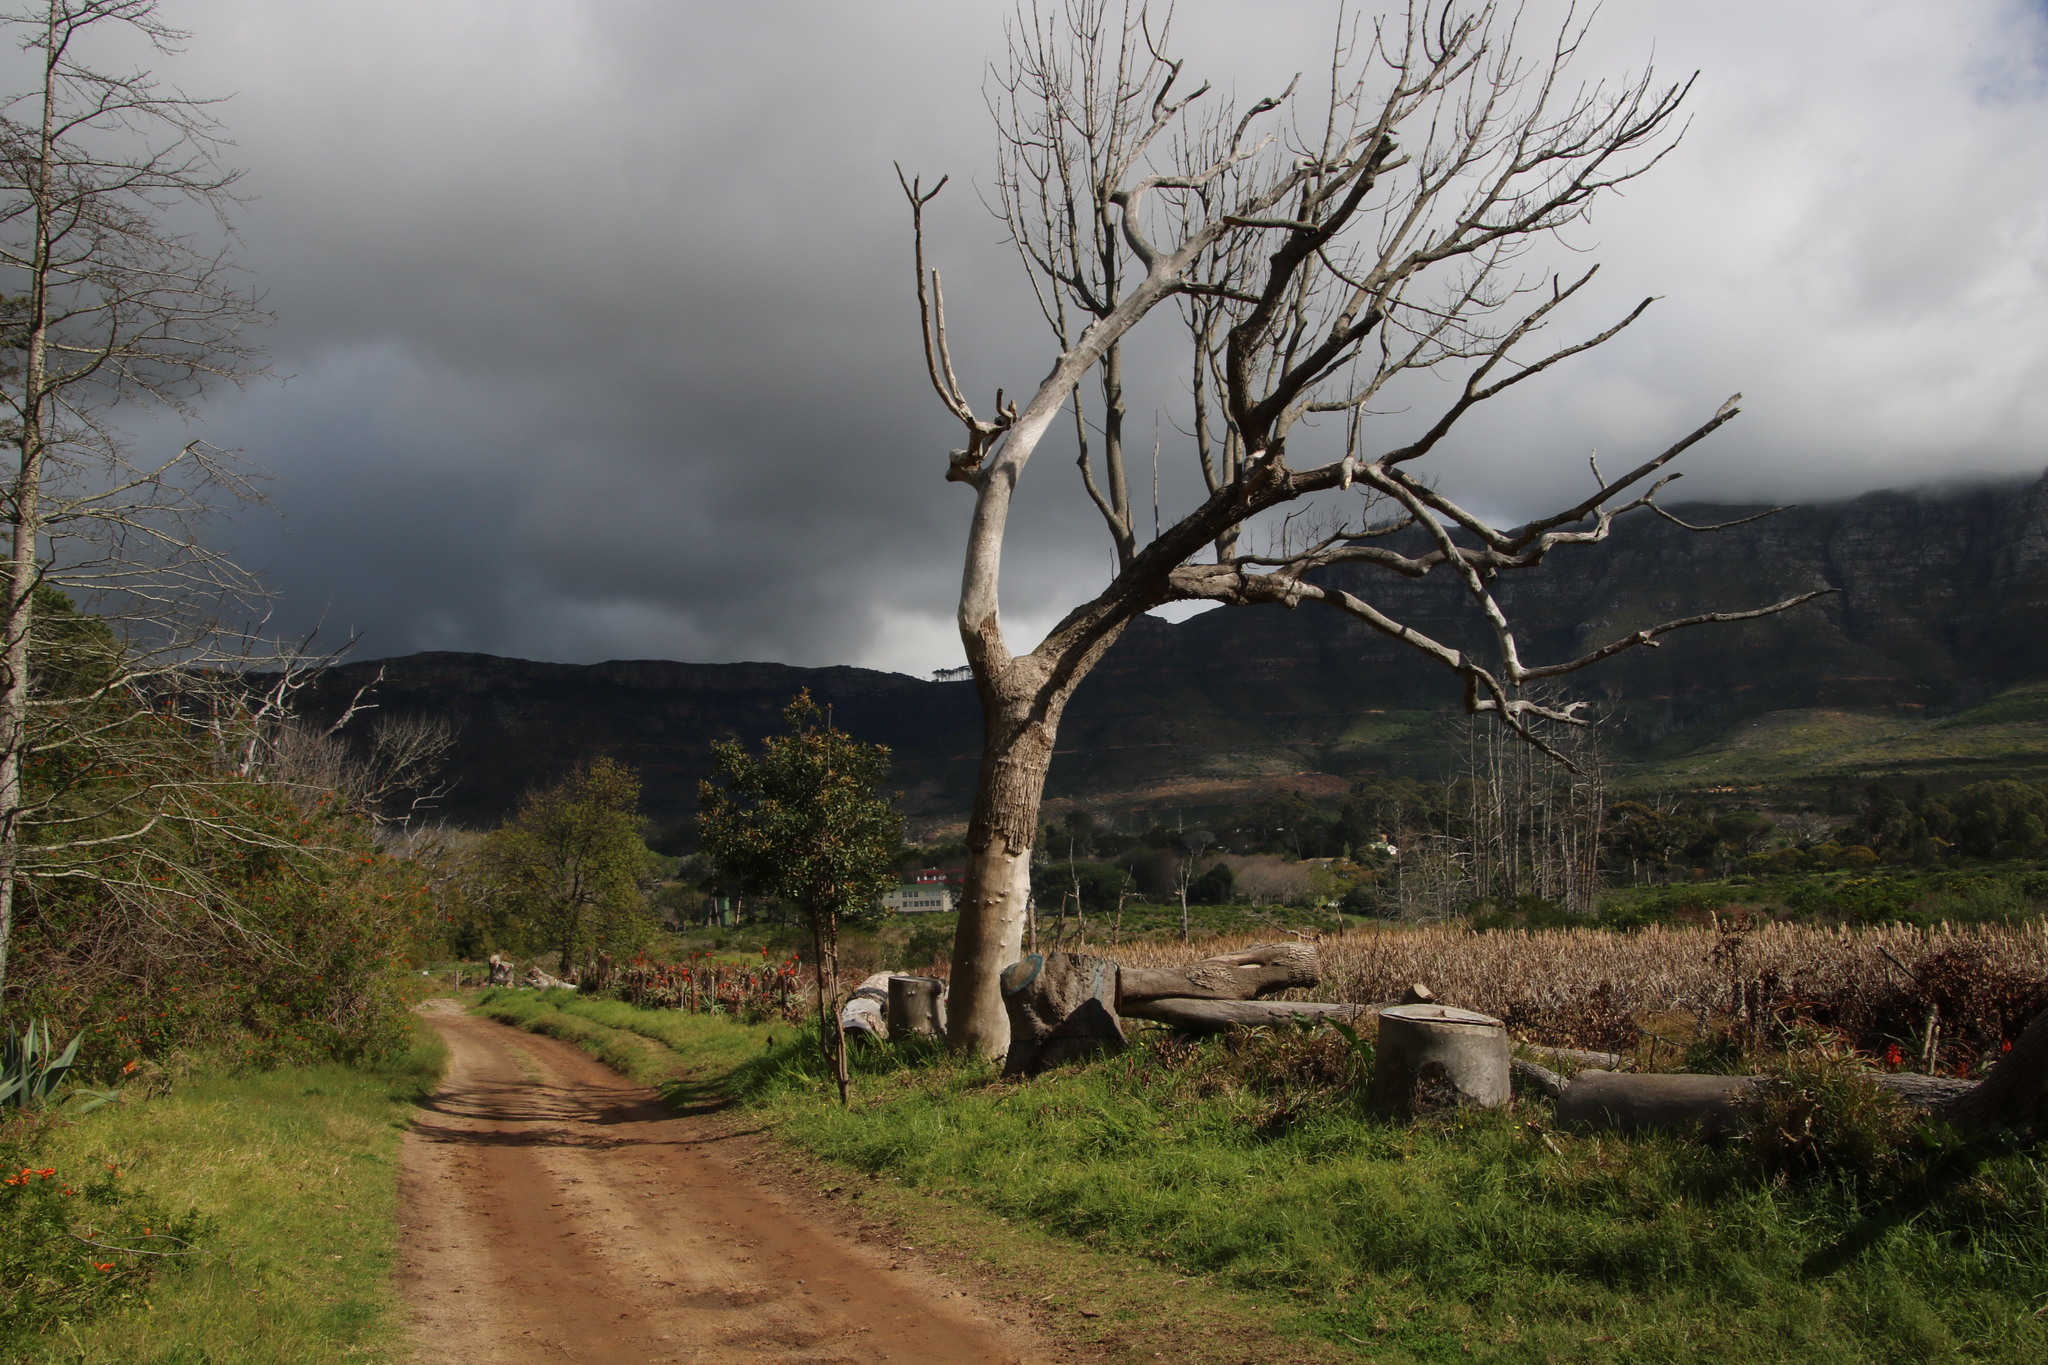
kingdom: Plantae
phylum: Tracheophyta
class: Magnoliopsida
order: Laurales
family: Lauraceae
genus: Cinnamomum
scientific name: Cinnamomum camphora
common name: Camphortree
